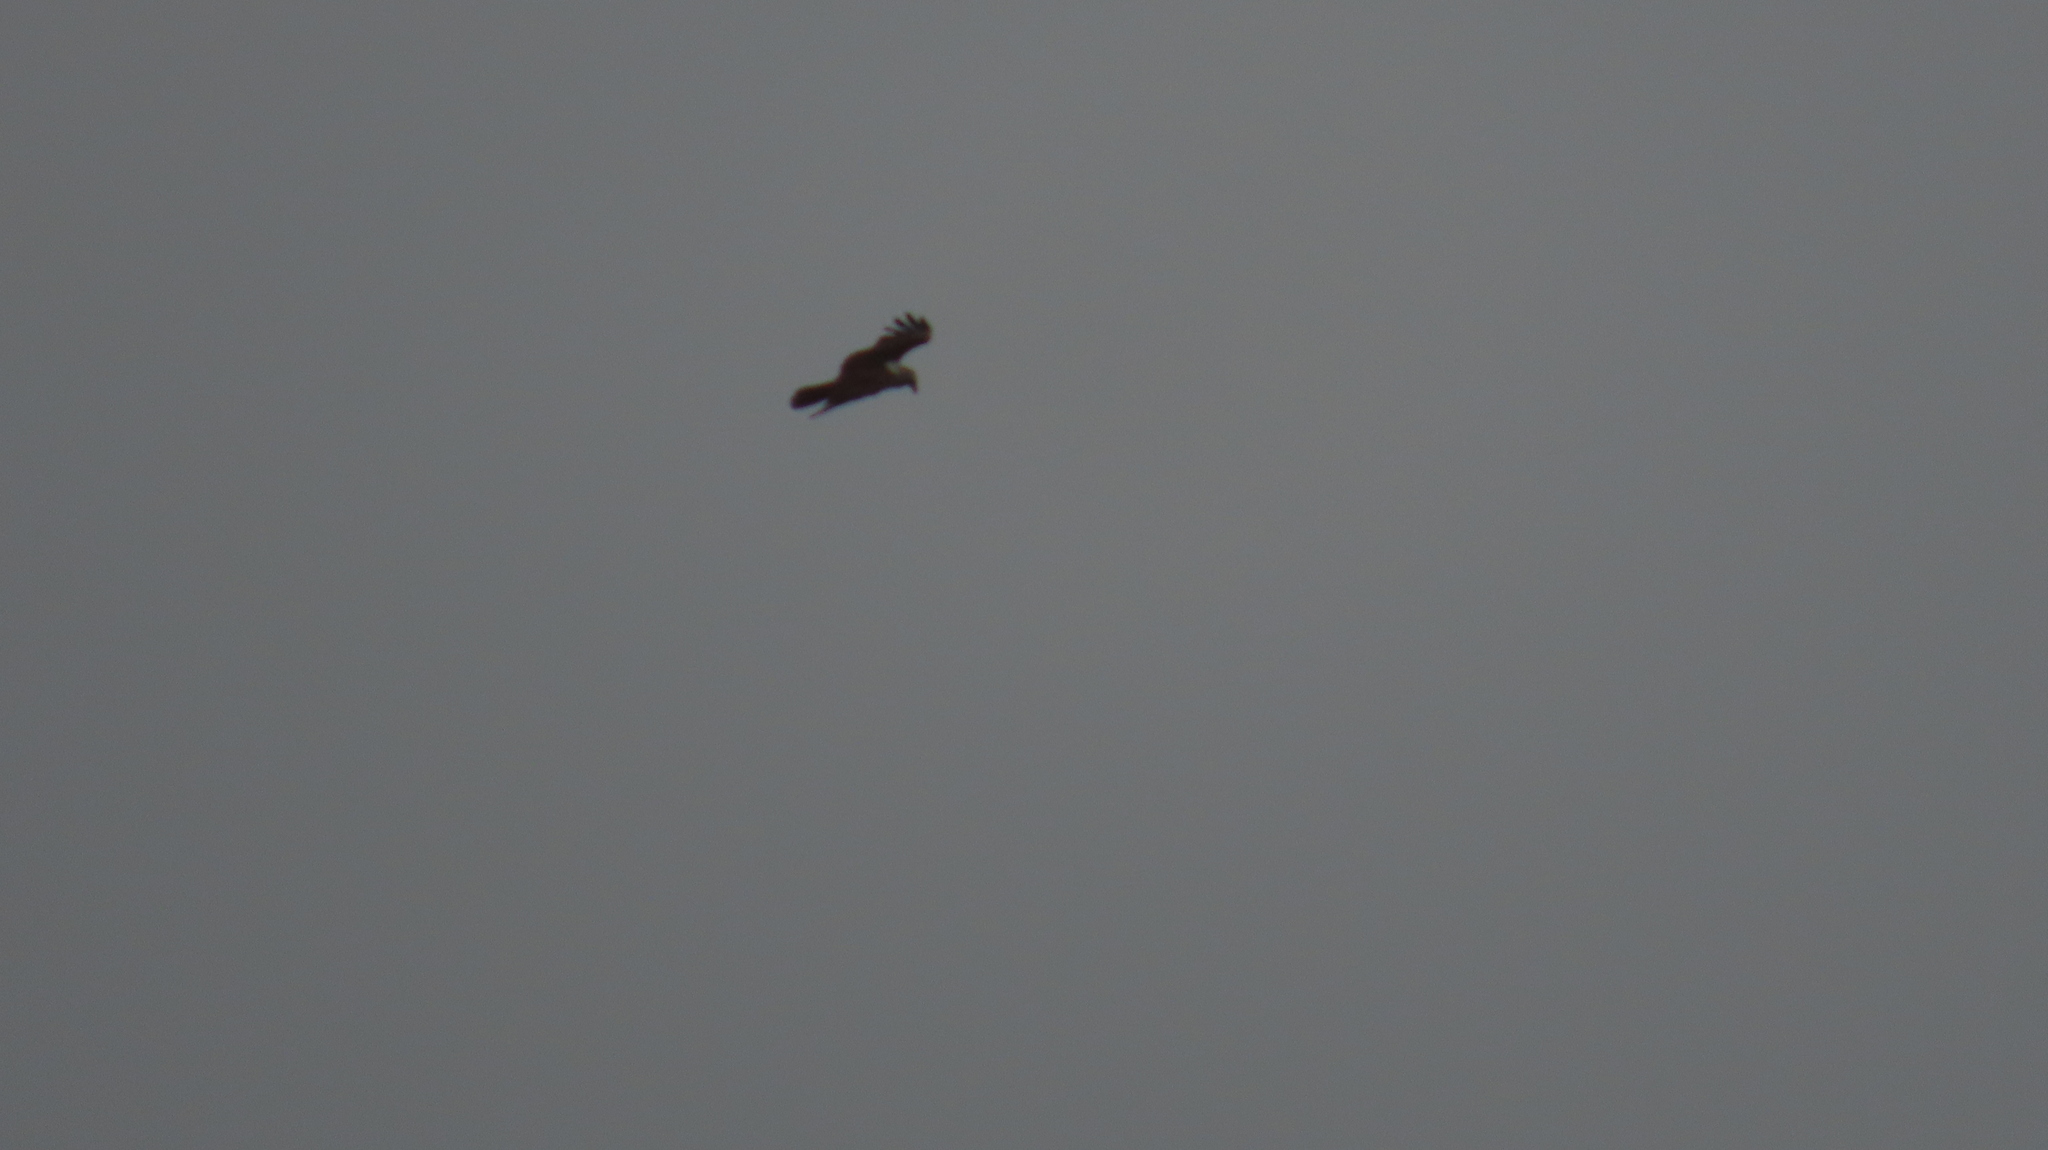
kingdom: Animalia
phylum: Chordata
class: Aves
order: Accipitriformes
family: Accipitridae
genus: Haliastur
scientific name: Haliastur indus
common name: Brahminy kite
